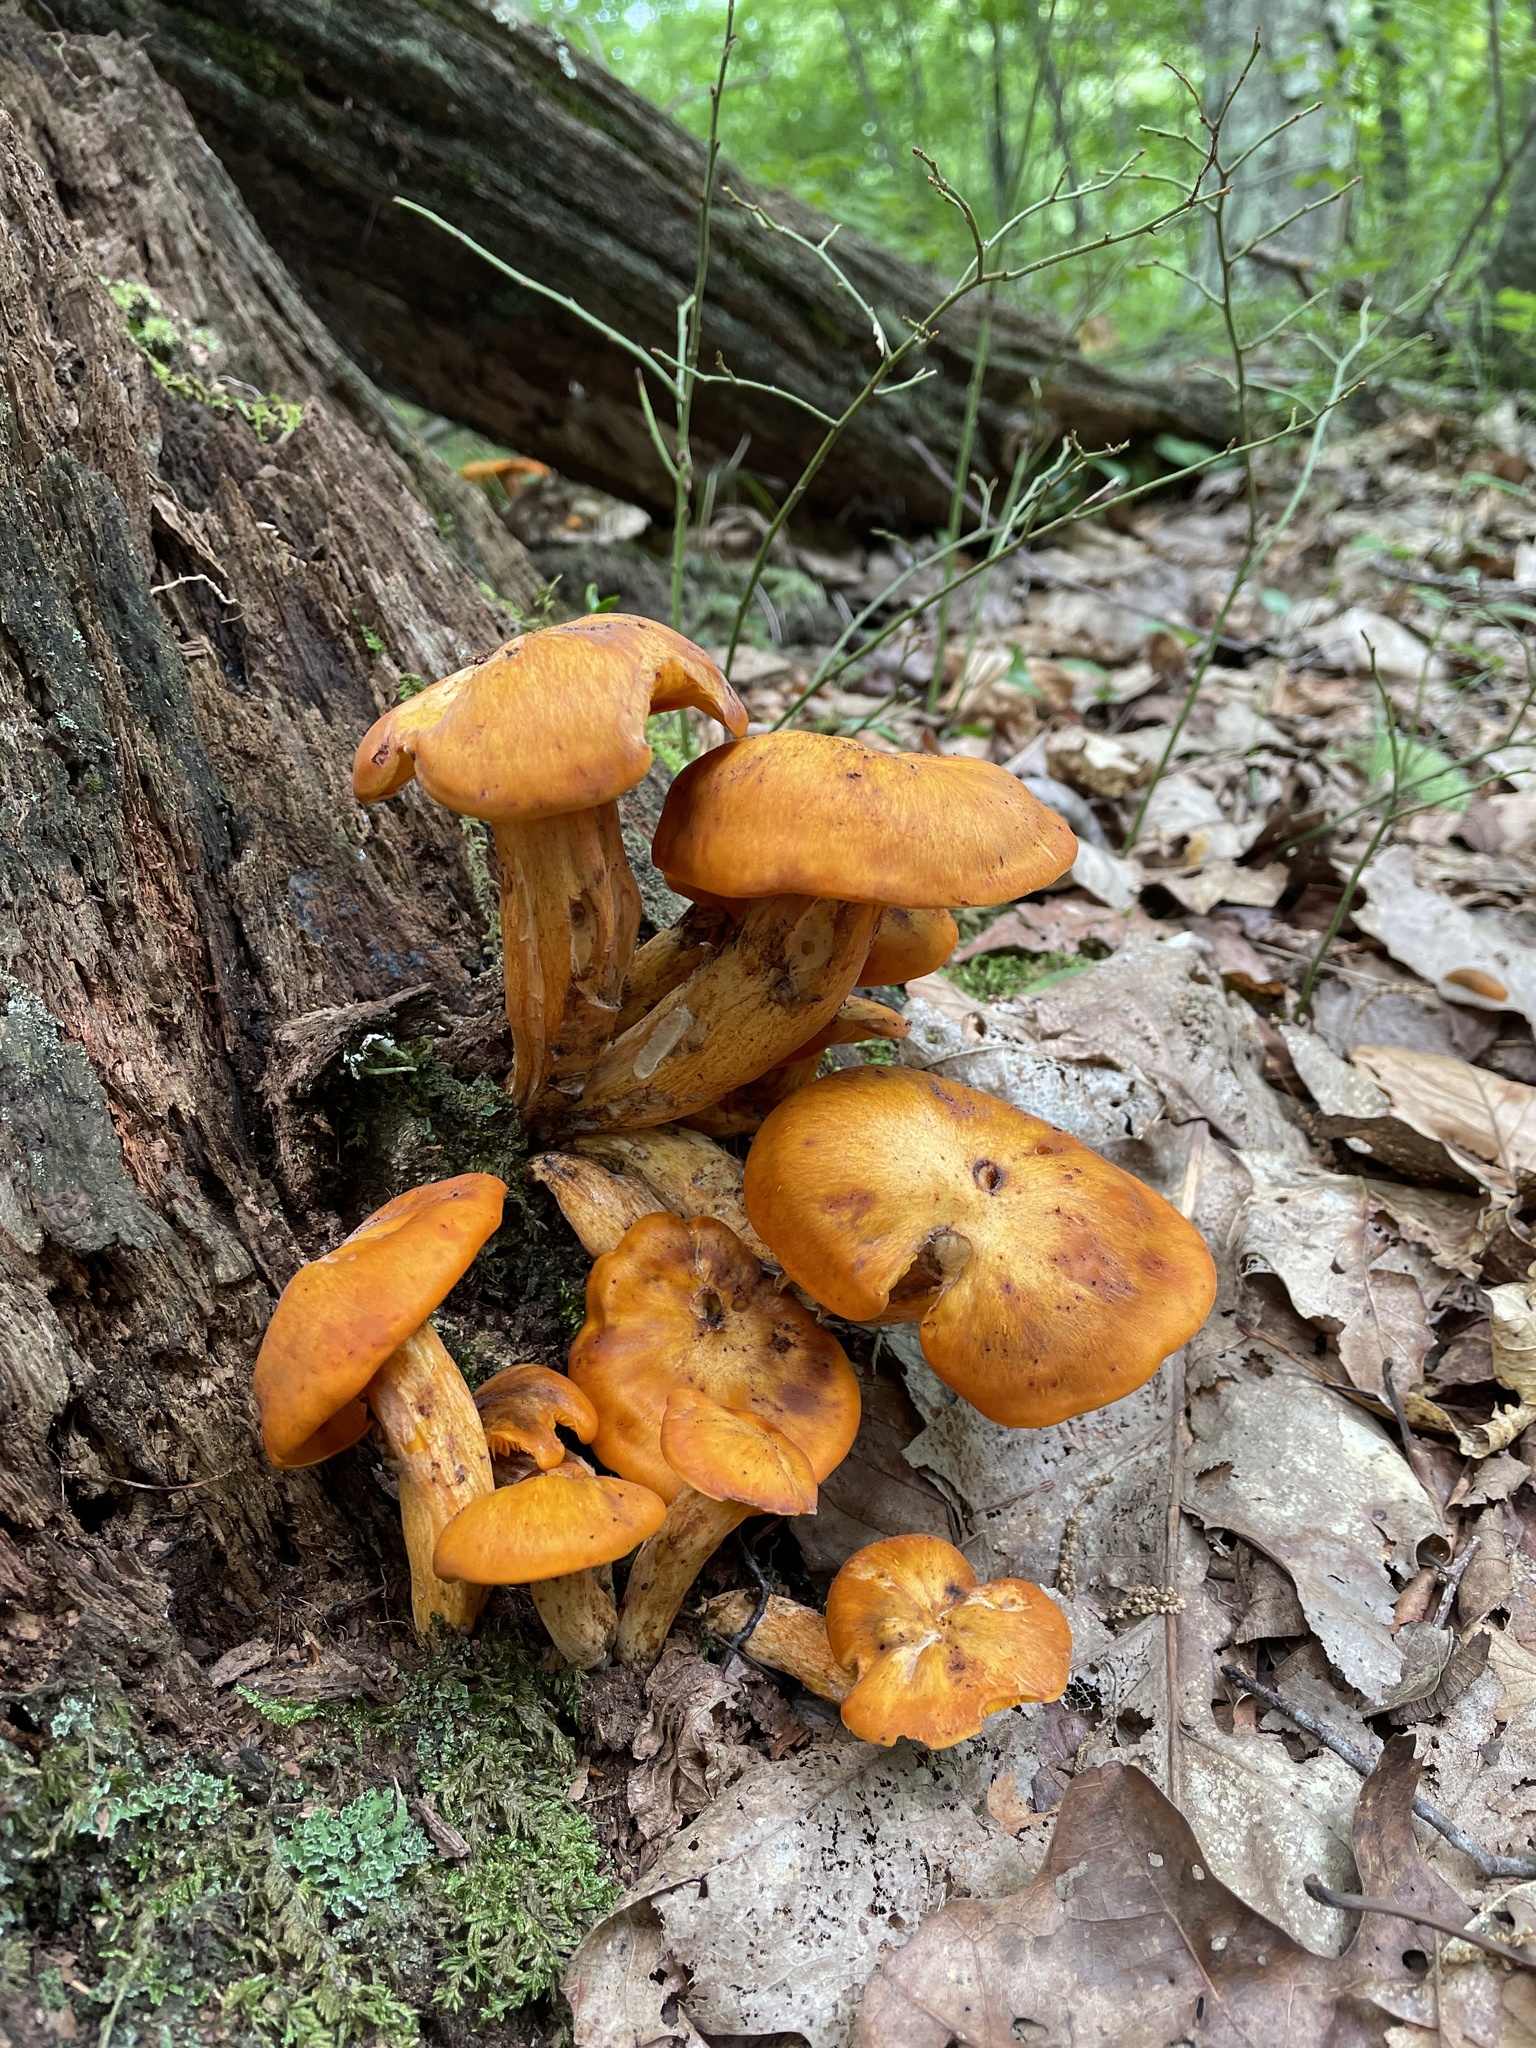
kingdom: Fungi
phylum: Basidiomycota
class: Agaricomycetes
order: Agaricales
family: Omphalotaceae
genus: Omphalotus
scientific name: Omphalotus illudens
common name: Jack o lantern
